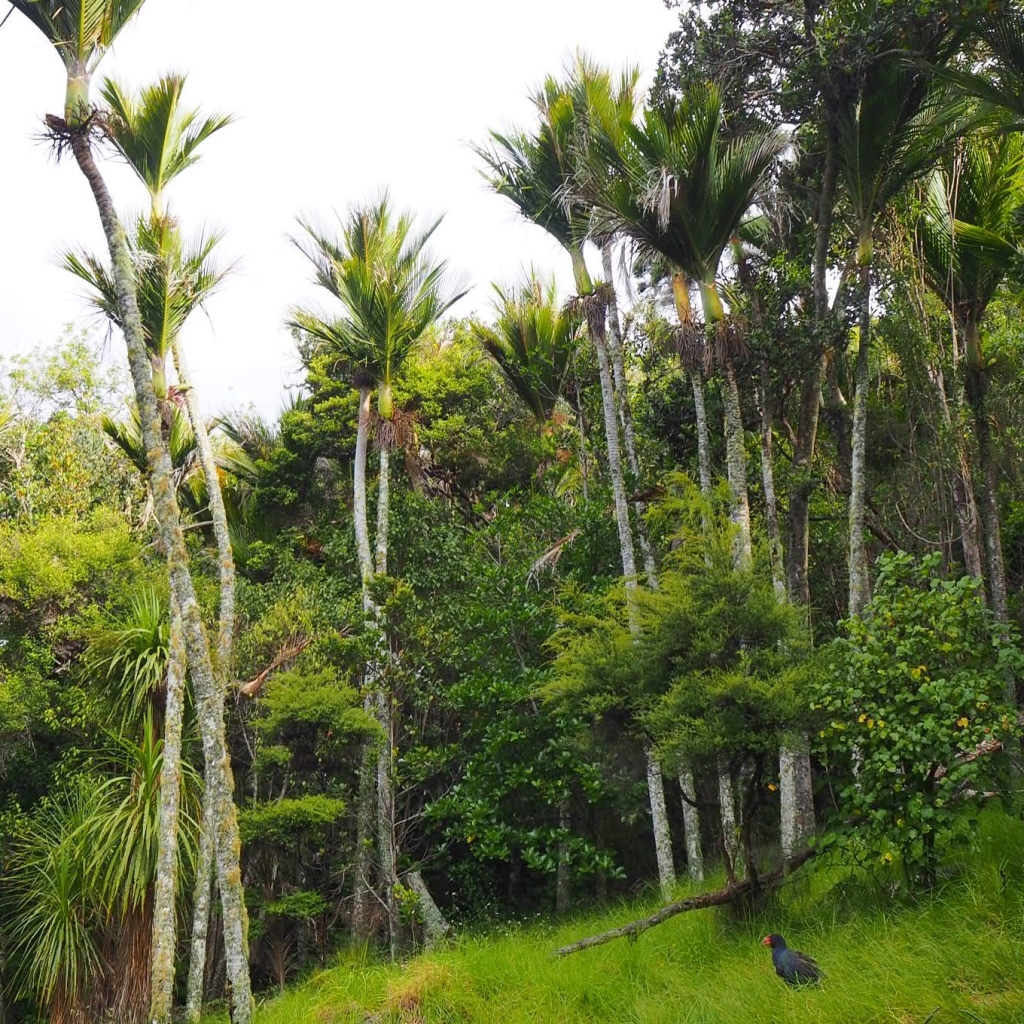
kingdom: Animalia
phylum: Chordata
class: Aves
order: Gruiformes
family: Rallidae
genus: Porphyrio
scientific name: Porphyrio hochstetteri
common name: South island takahe
